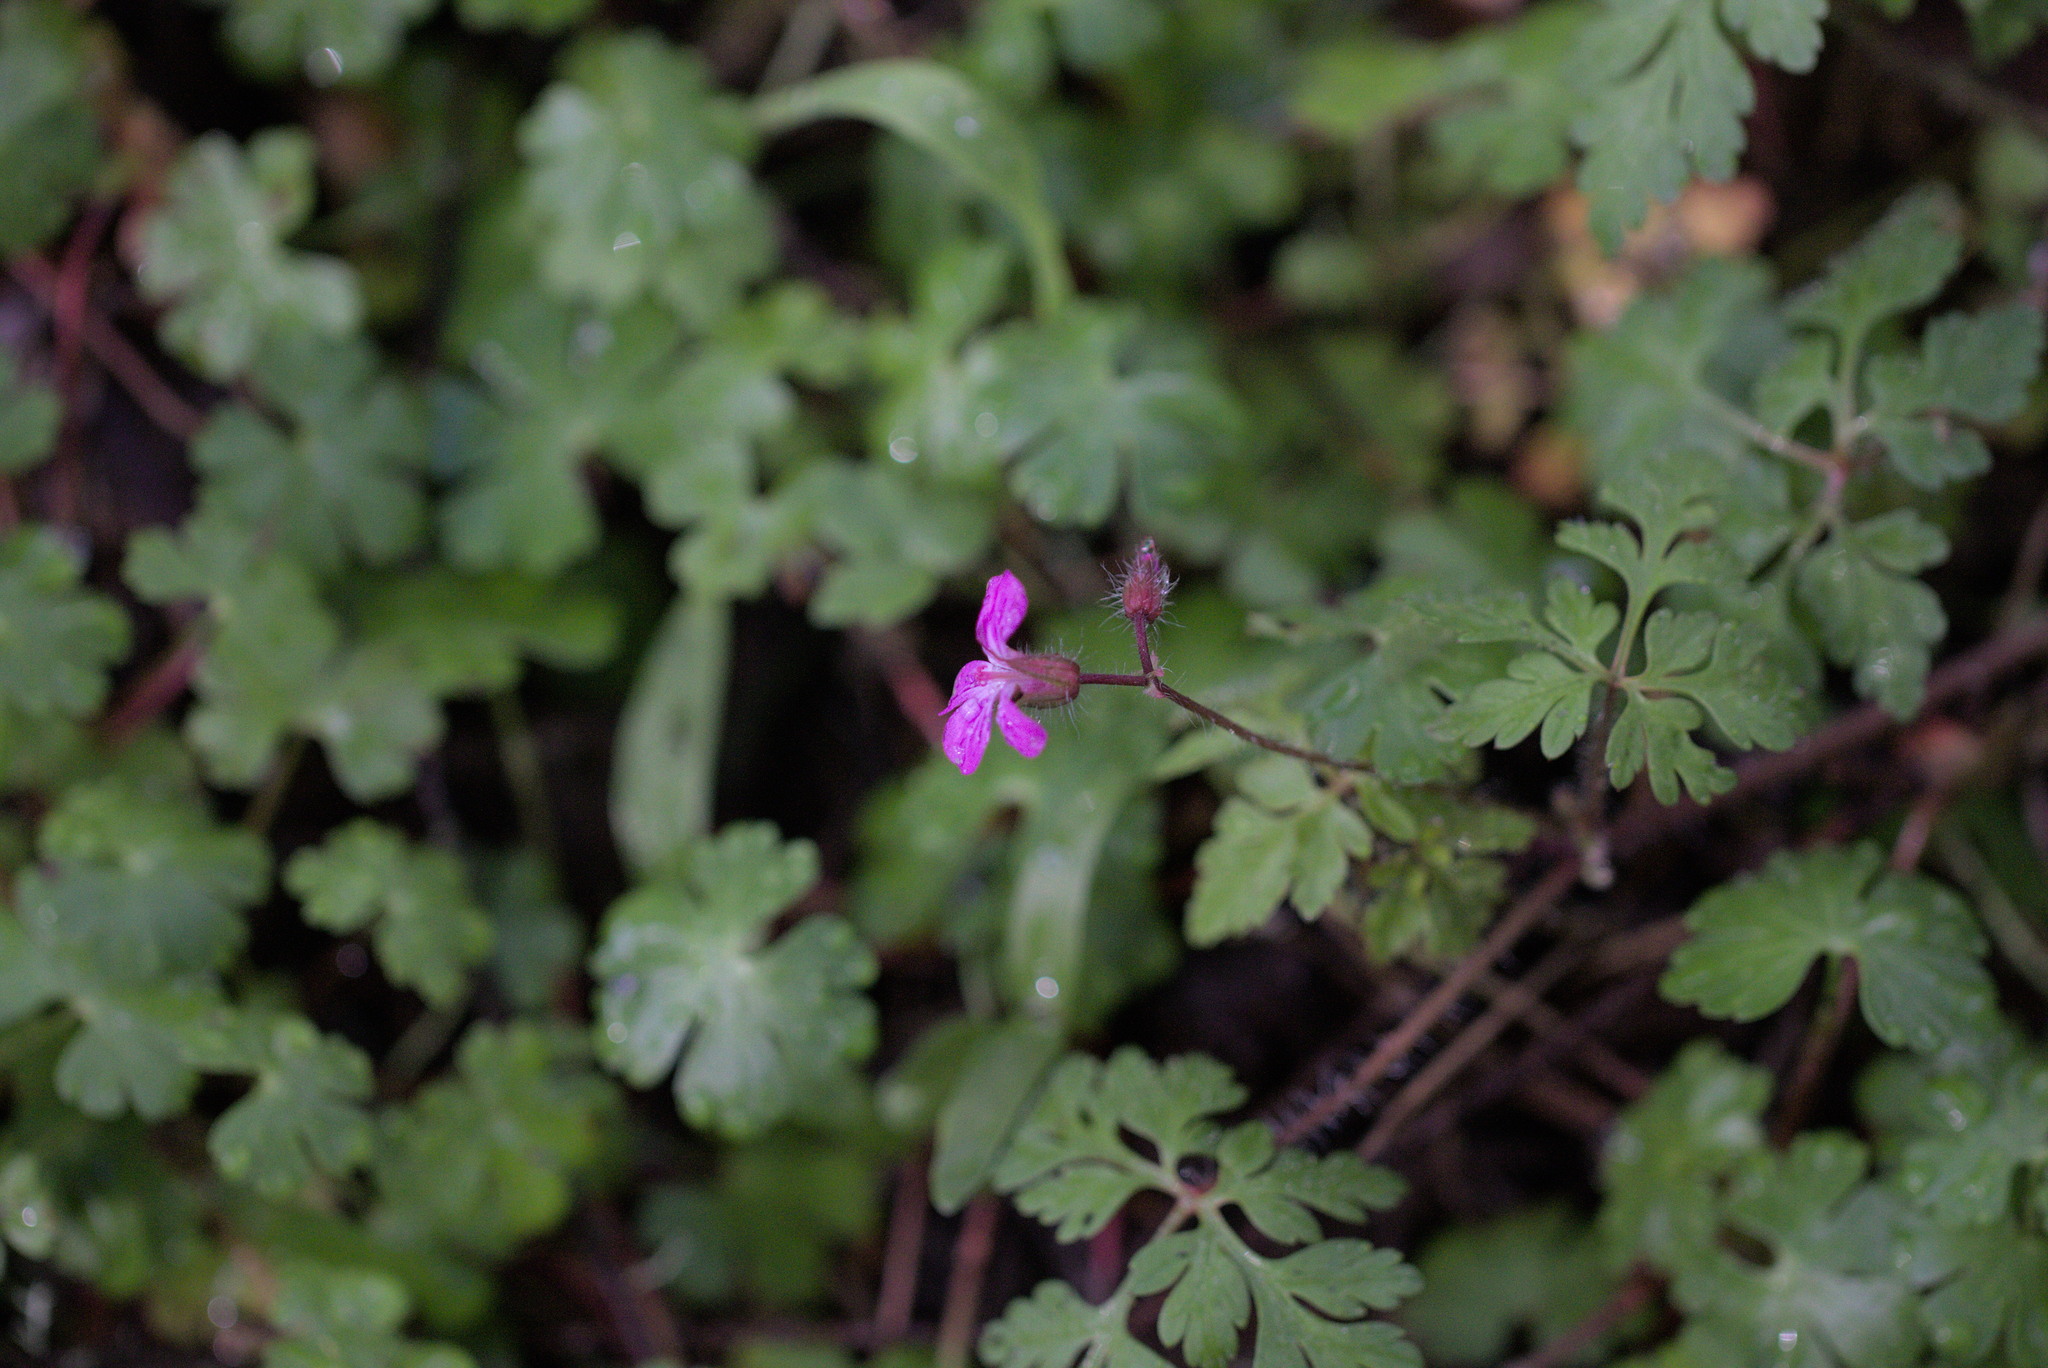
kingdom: Plantae
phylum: Tracheophyta
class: Magnoliopsida
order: Geraniales
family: Geraniaceae
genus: Geranium
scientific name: Geranium robertianum
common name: Herb-robert
